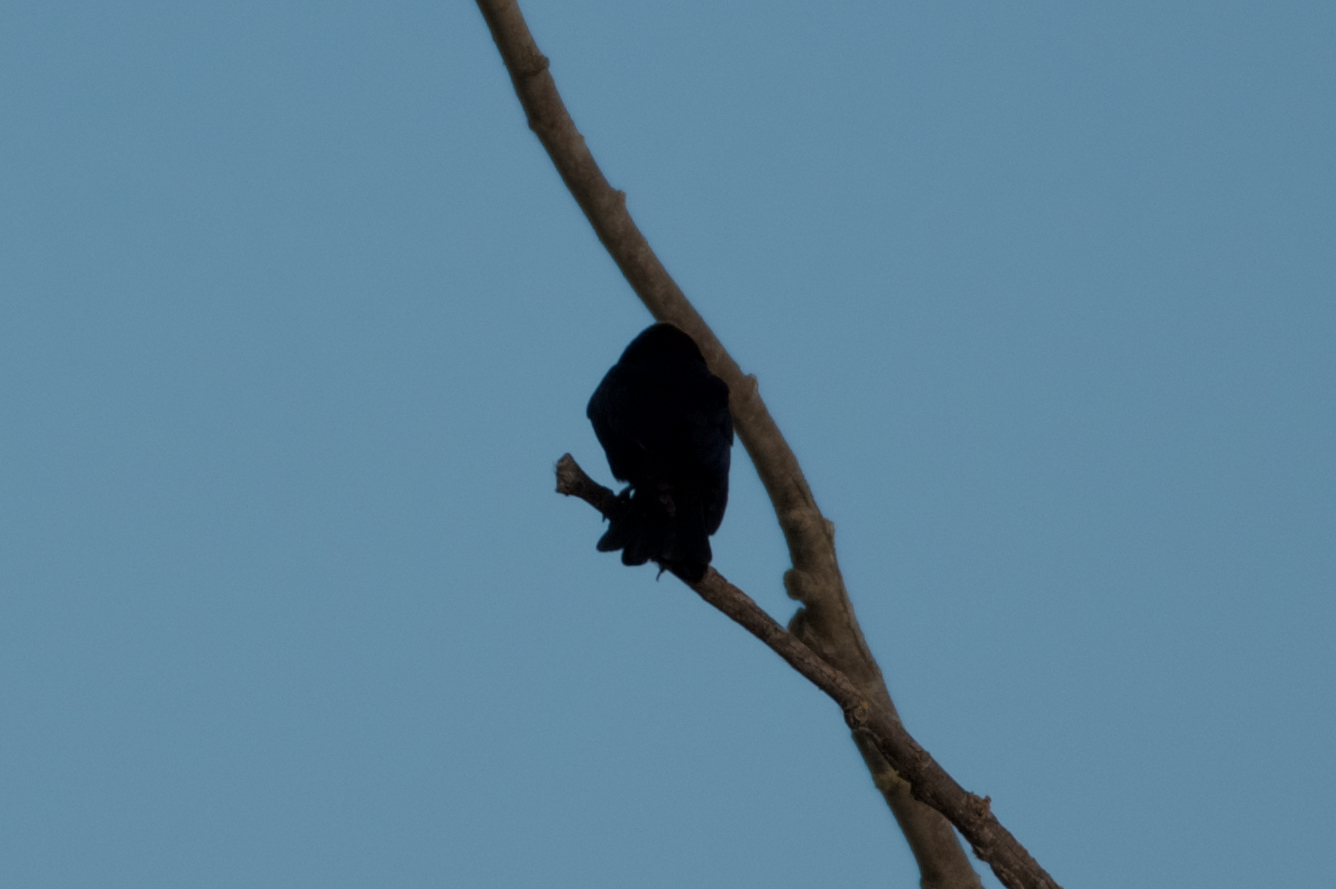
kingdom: Animalia
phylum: Chordata
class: Aves
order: Passeriformes
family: Icteridae
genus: Agelaius
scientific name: Agelaius phoeniceus
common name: Red-winged blackbird
